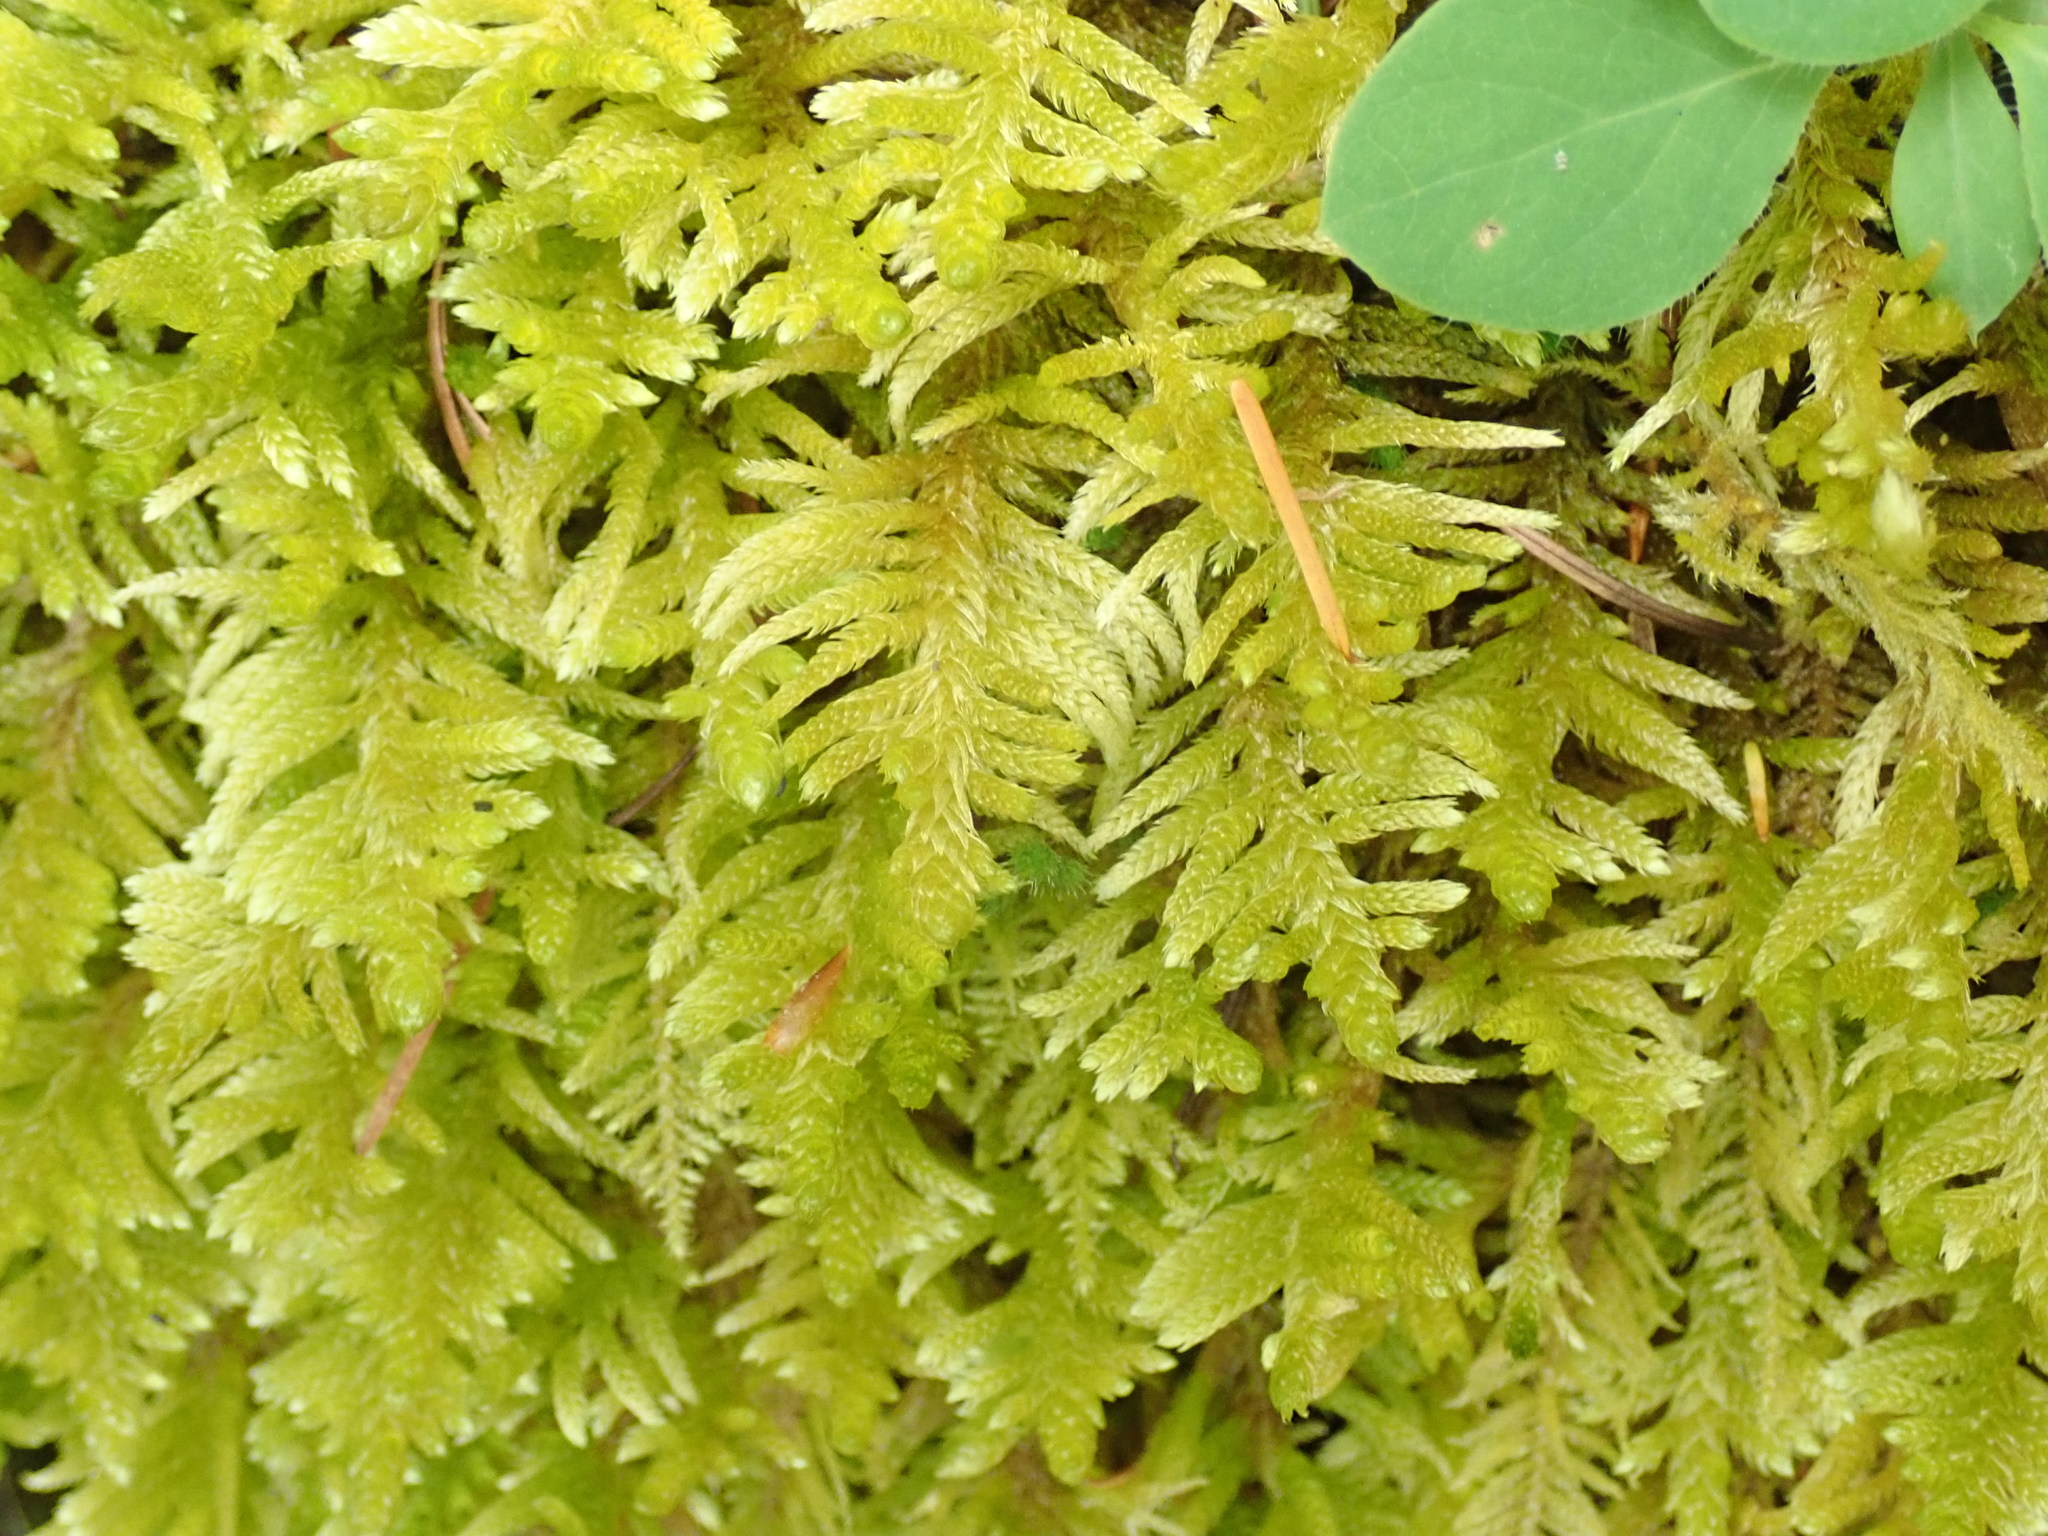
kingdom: Plantae
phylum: Bryophyta
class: Bryopsida
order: Hypnales
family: Brachytheciaceae
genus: Homalothecium
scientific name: Homalothecium megaptilum
